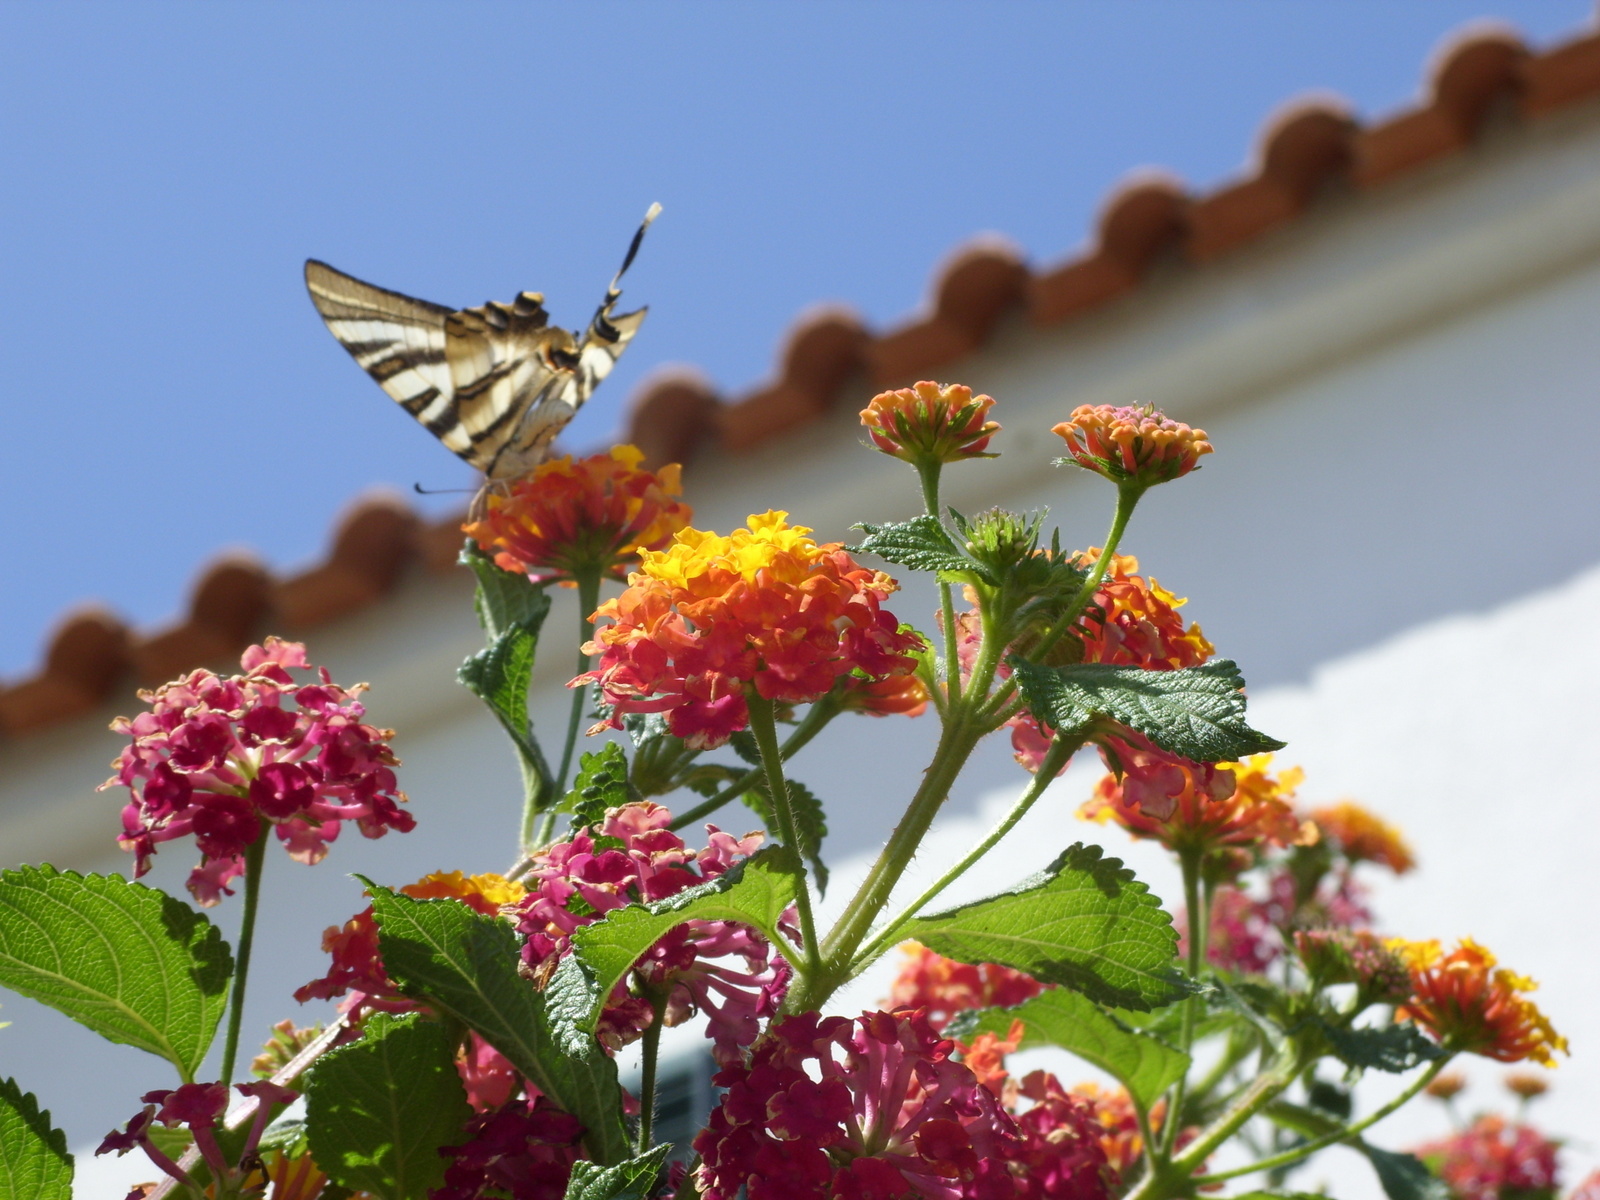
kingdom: Animalia
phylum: Arthropoda
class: Insecta
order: Lepidoptera
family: Papilionidae
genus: Iphiclides
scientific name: Iphiclides feisthamelii
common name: Iberian scarce swallowtail
